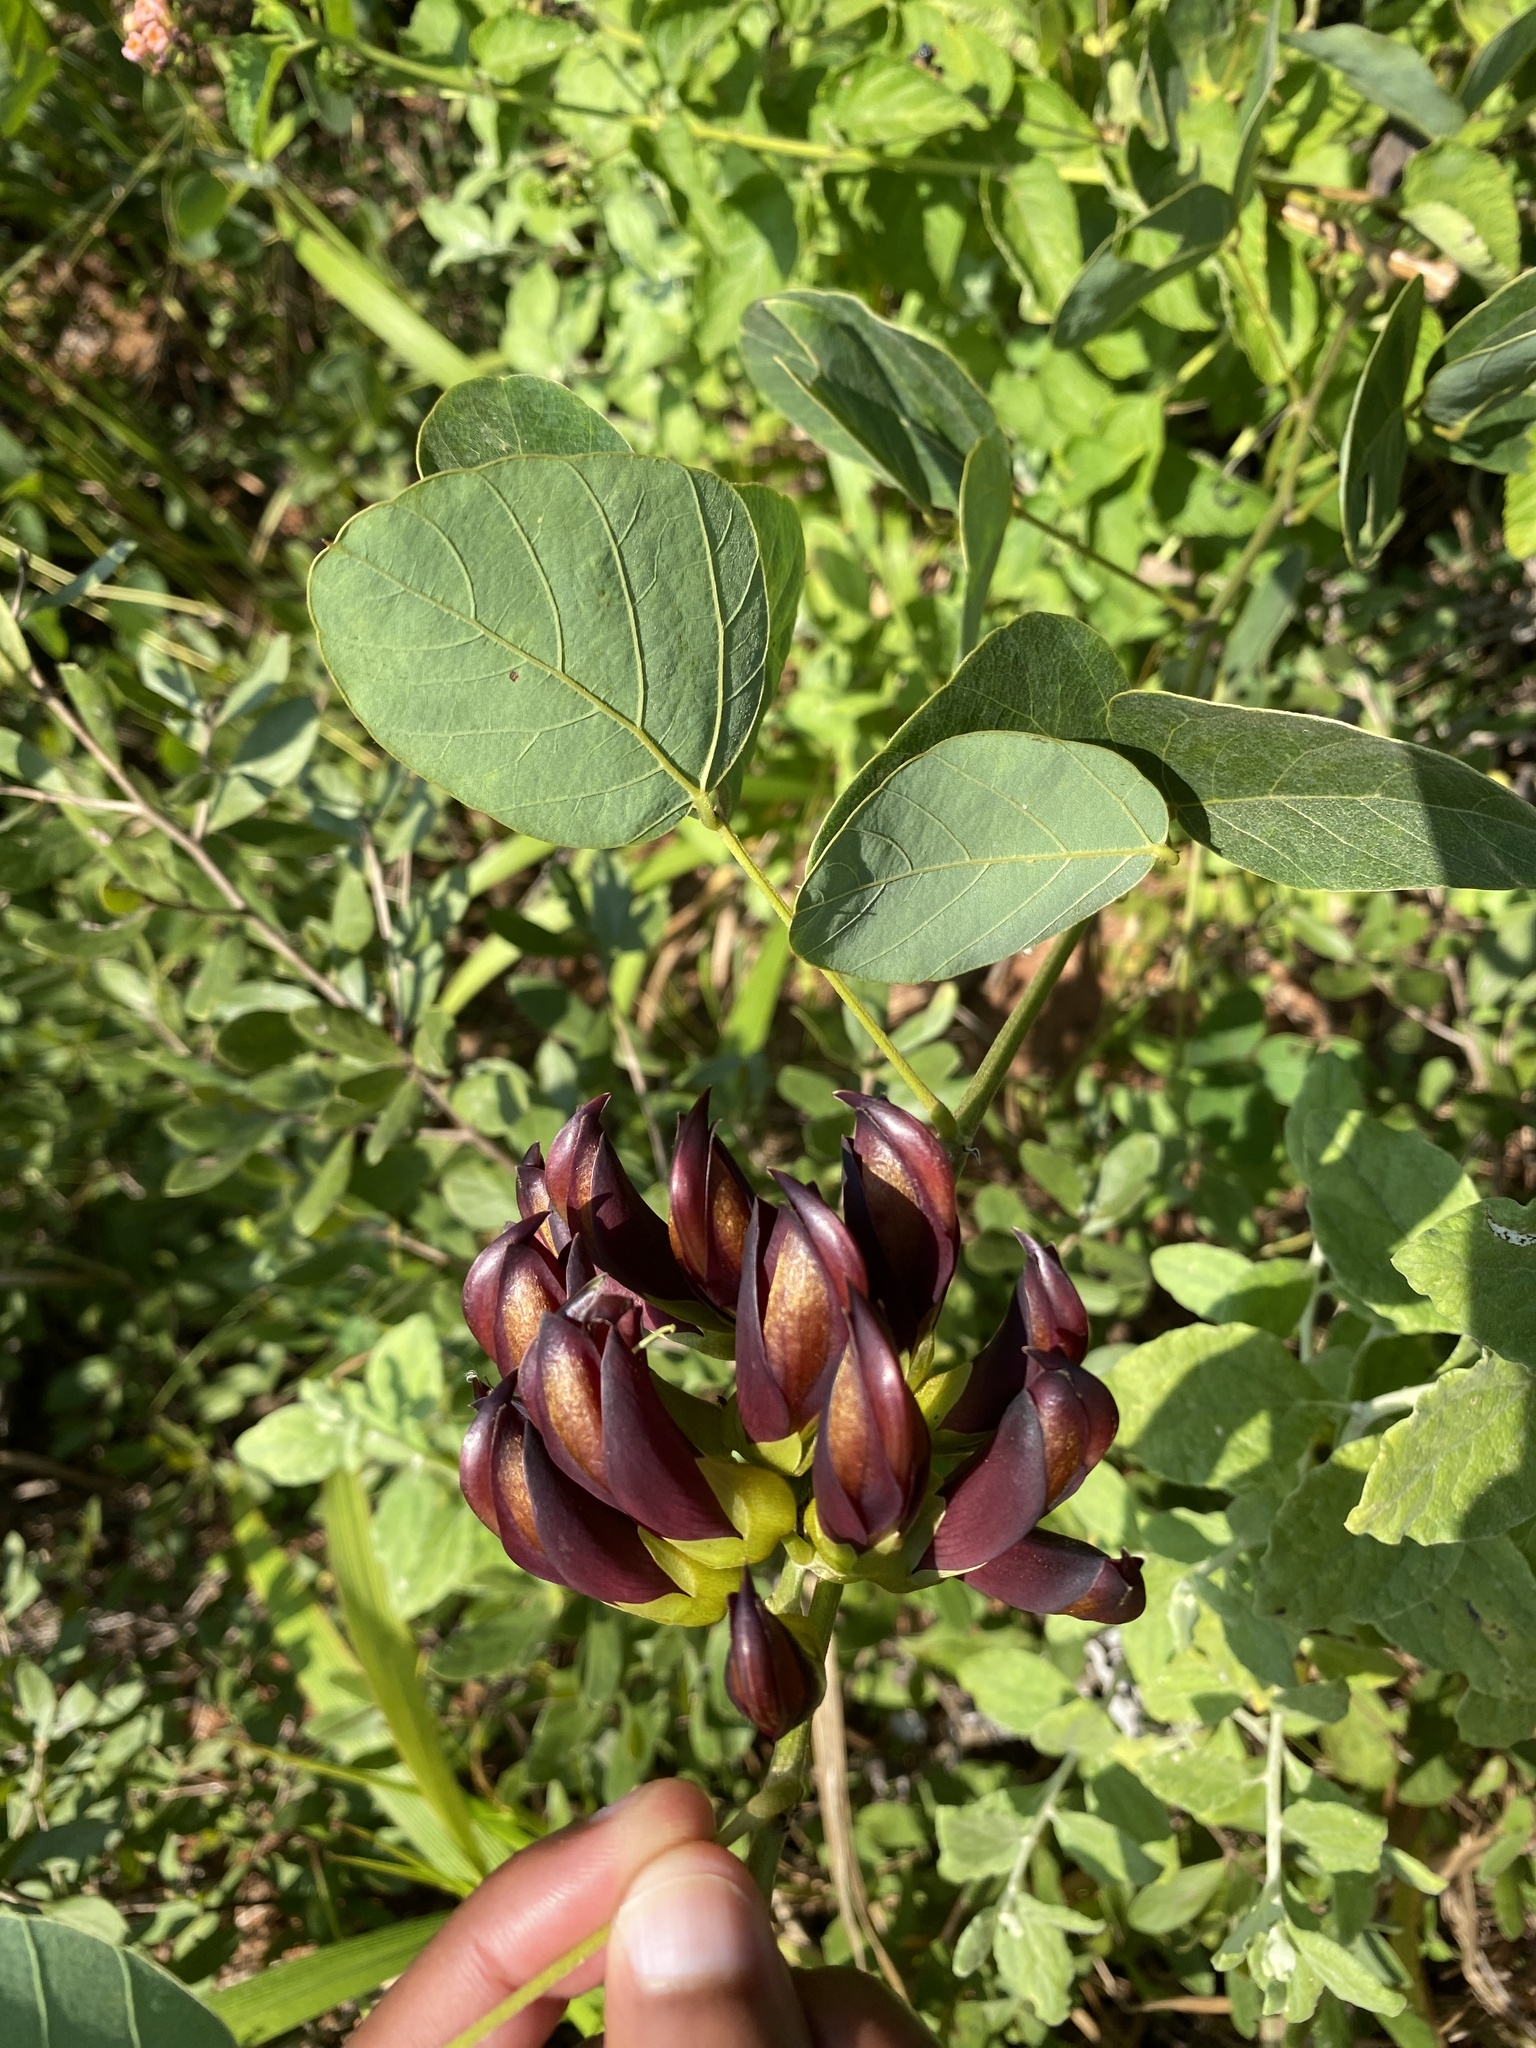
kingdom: Plantae
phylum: Tracheophyta
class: Magnoliopsida
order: Fabales
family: Fabaceae
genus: Mucuna
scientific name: Mucuna coriacea
